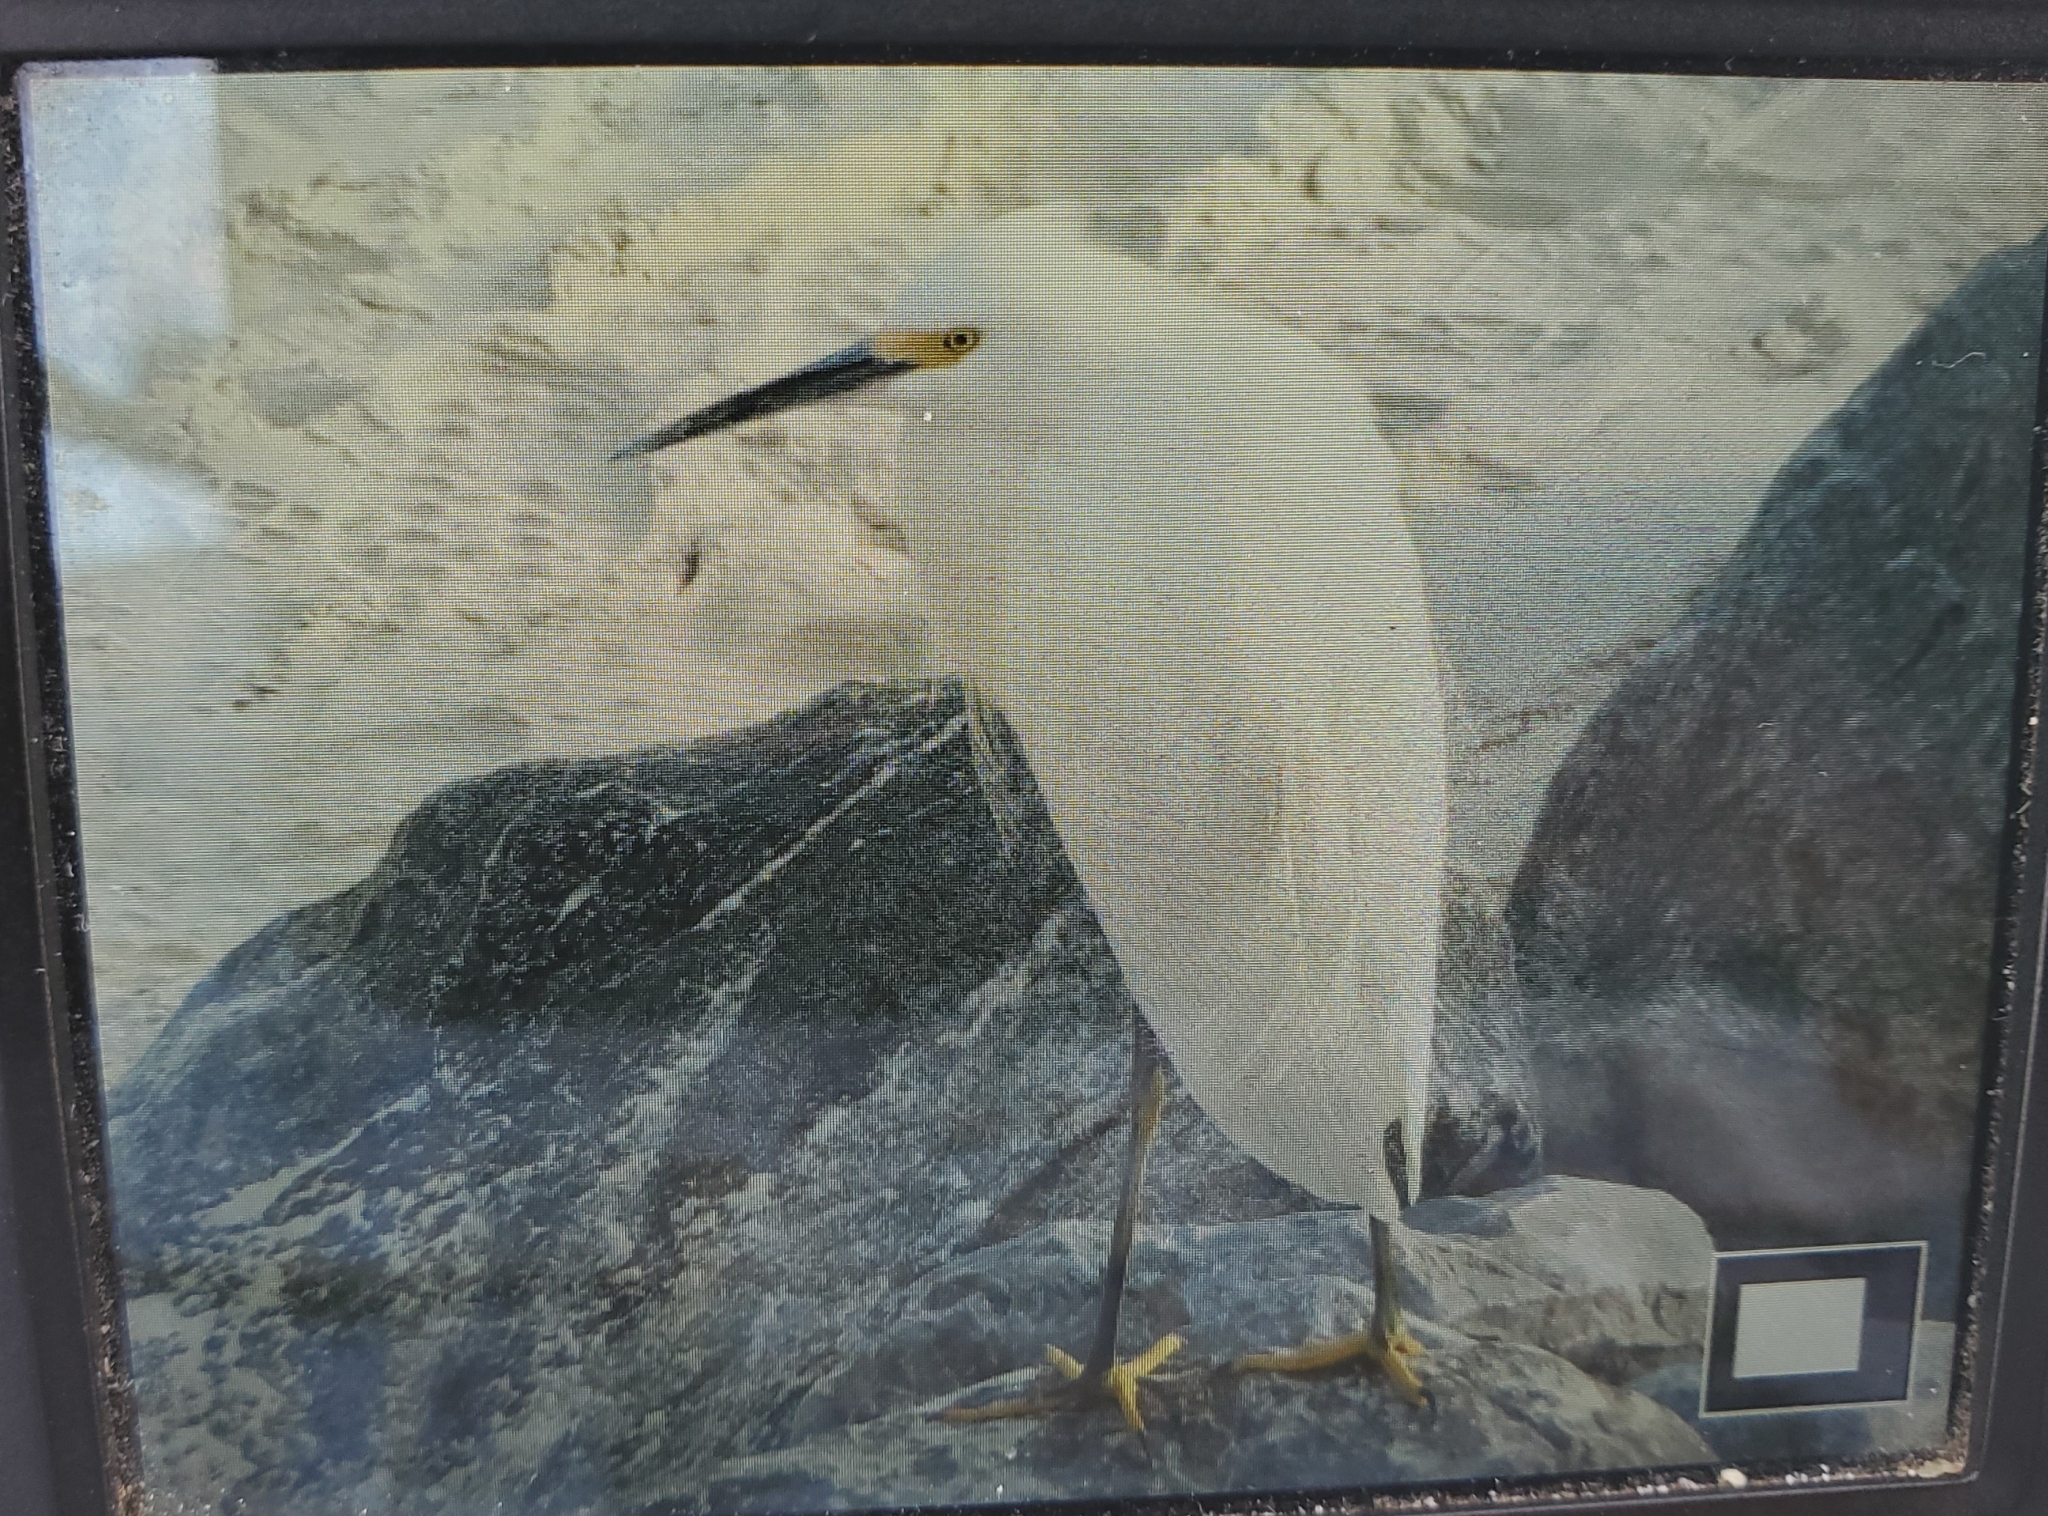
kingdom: Animalia
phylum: Chordata
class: Aves
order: Pelecaniformes
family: Ardeidae
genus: Egretta
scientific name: Egretta thula
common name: Snowy egret
